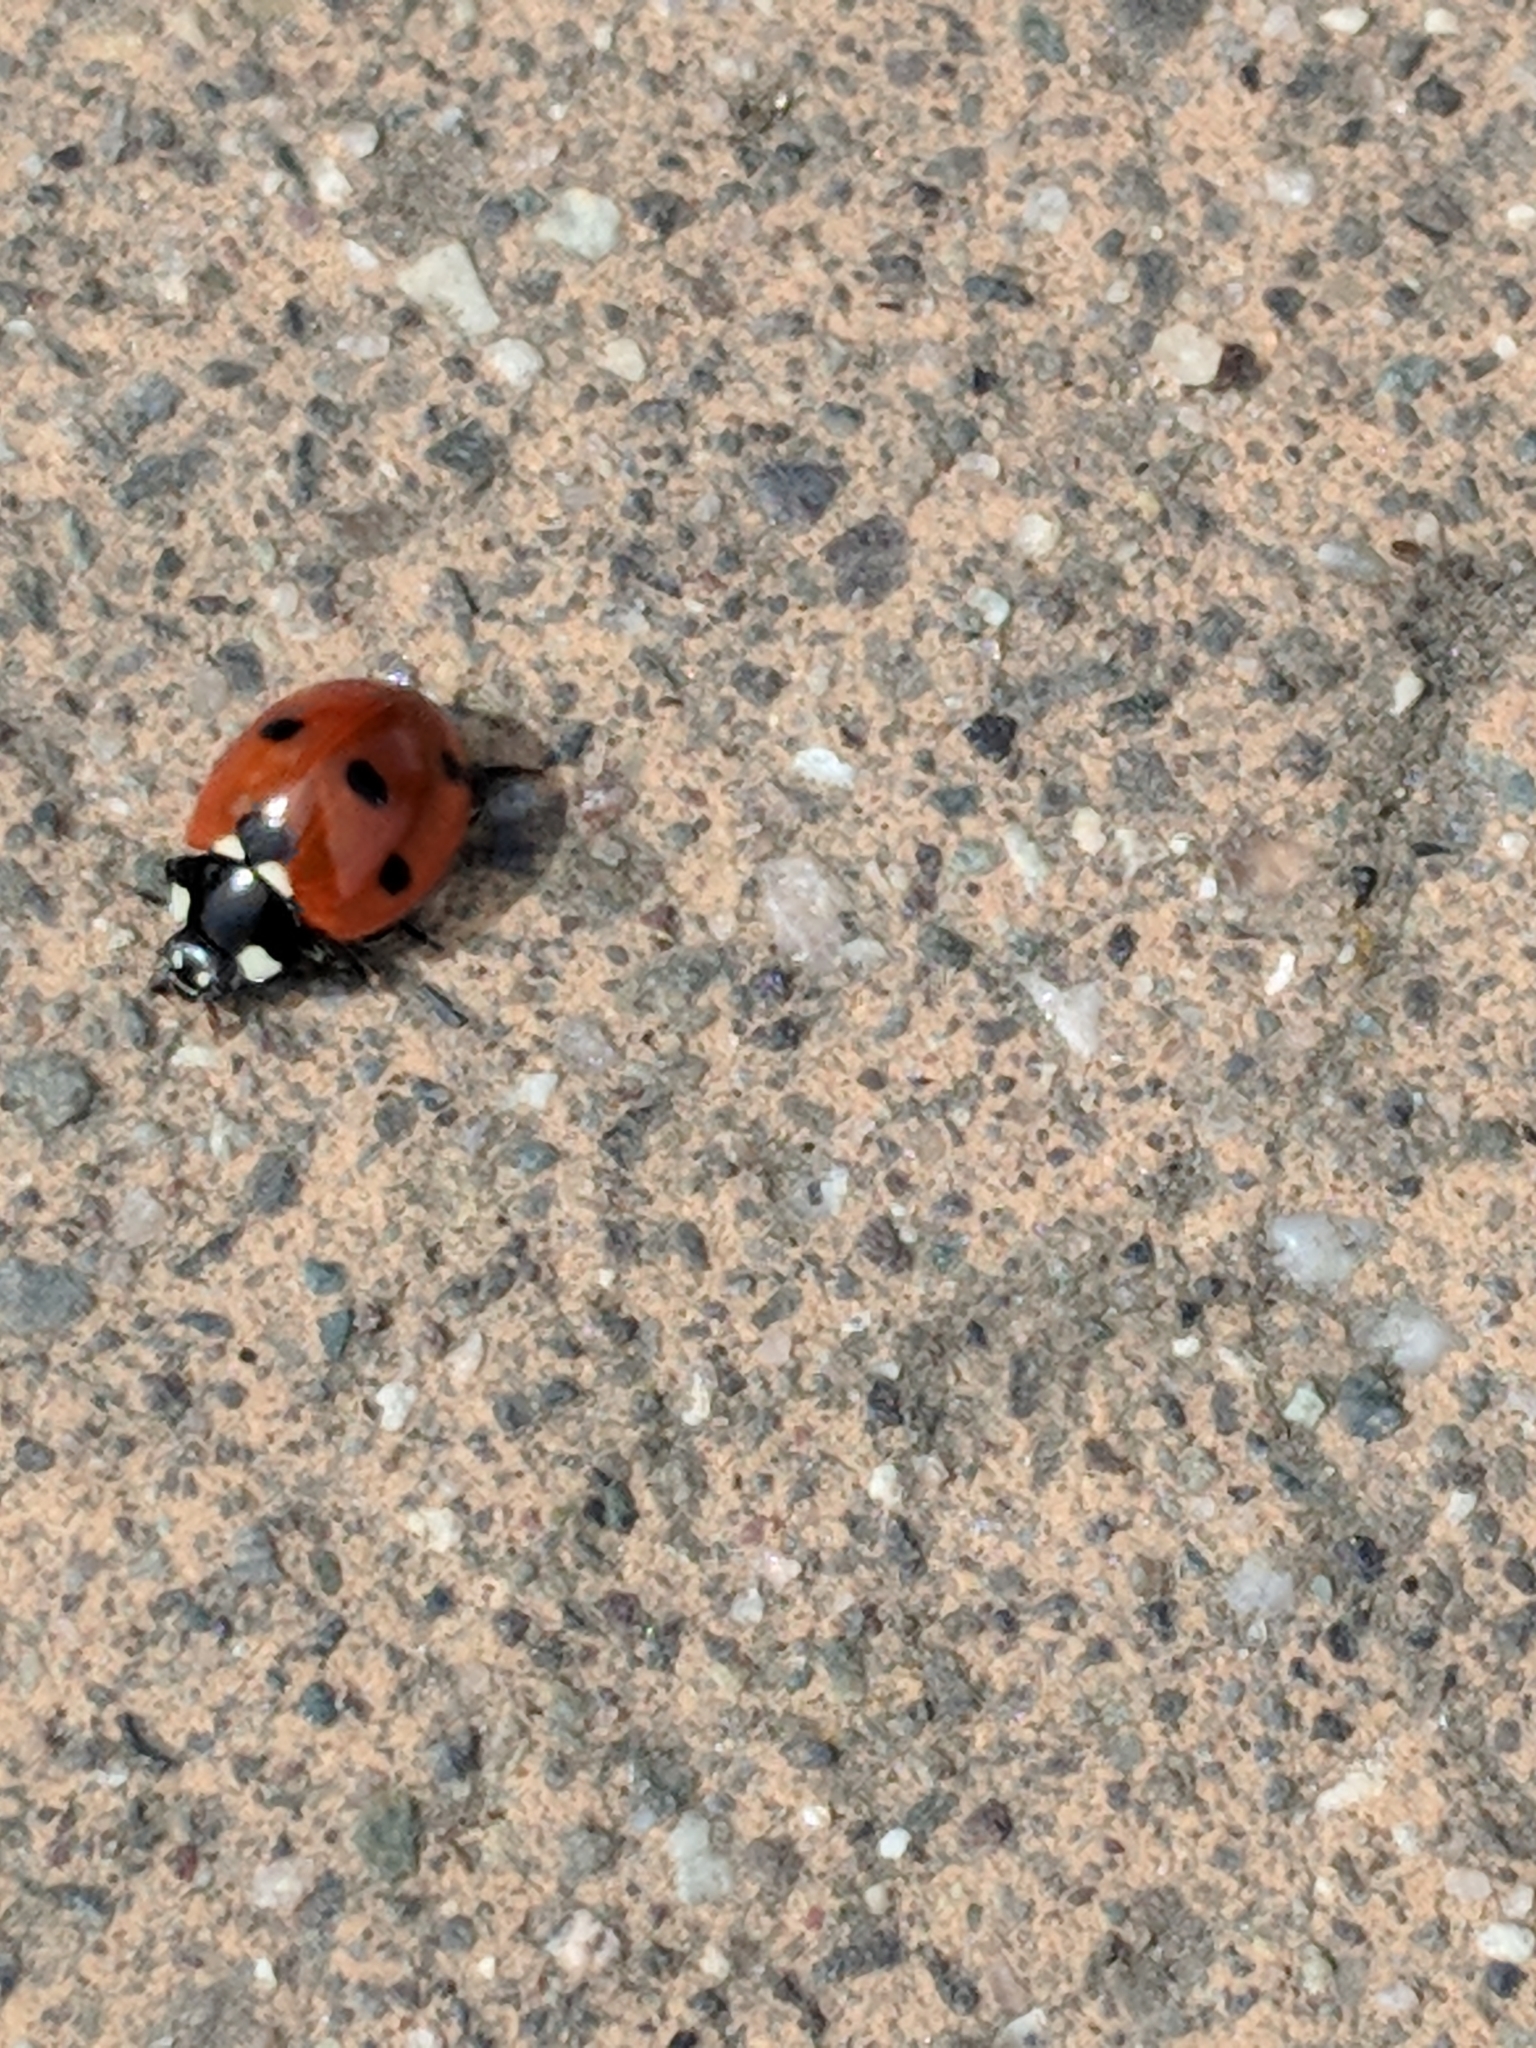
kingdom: Animalia
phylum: Arthropoda
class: Insecta
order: Coleoptera
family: Coccinellidae
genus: Coccinella
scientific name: Coccinella septempunctata
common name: Sevenspotted lady beetle
